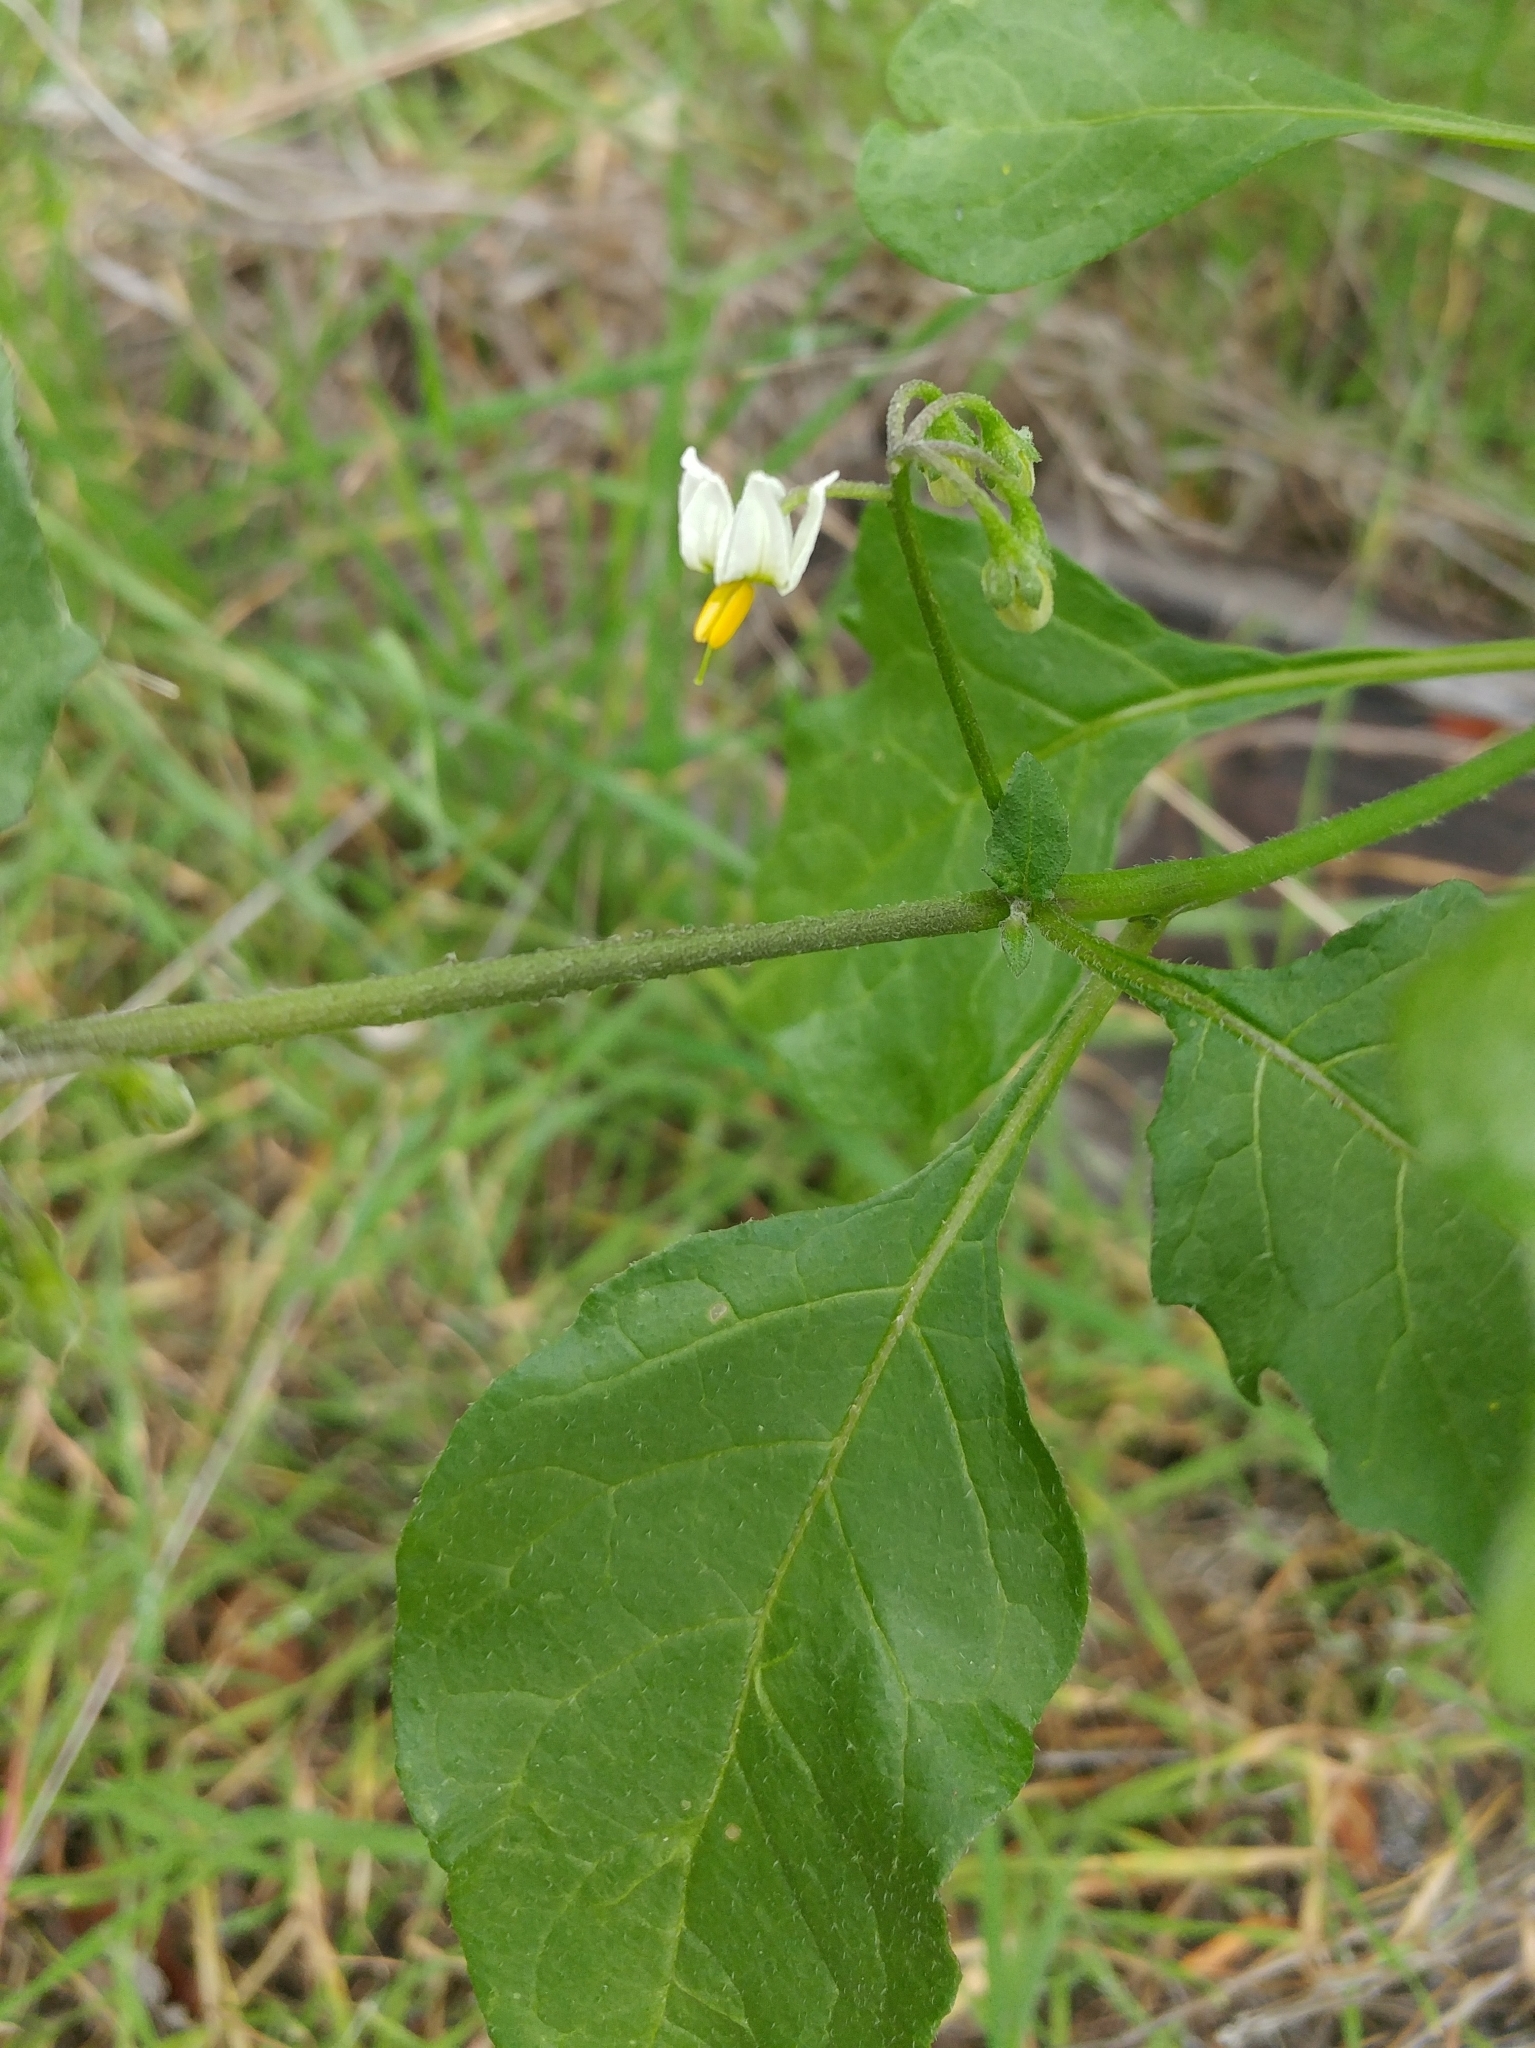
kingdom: Plantae
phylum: Tracheophyta
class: Magnoliopsida
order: Solanales
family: Solanaceae
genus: Solanum
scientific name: Solanum douglasii
